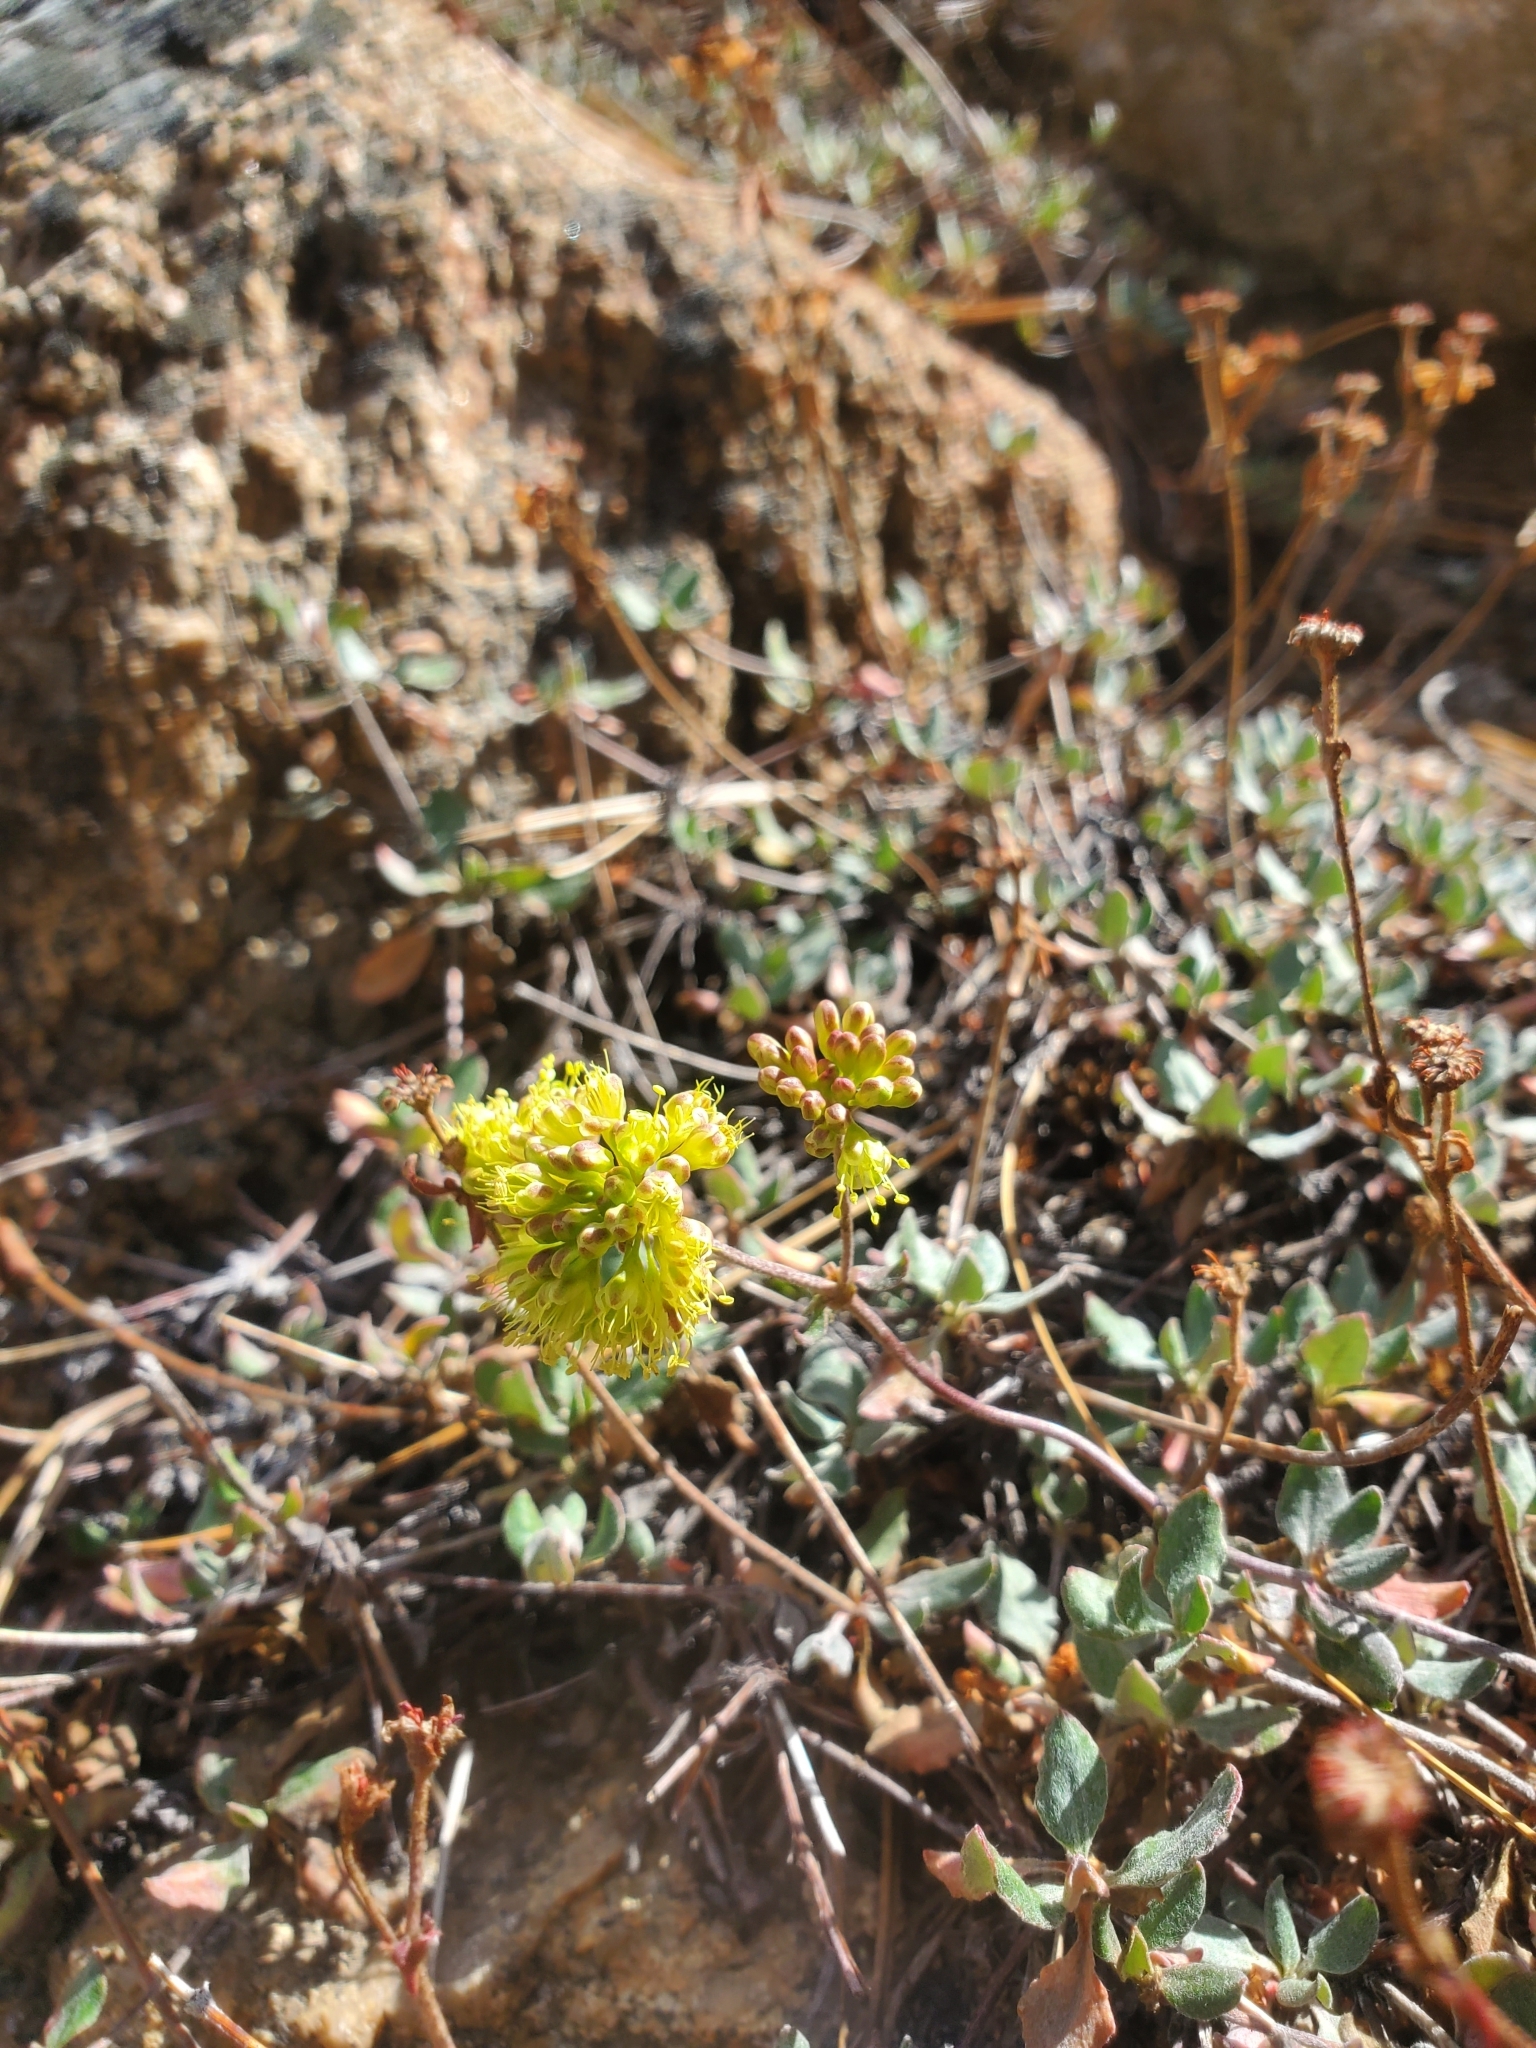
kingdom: Plantae
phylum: Tracheophyta
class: Magnoliopsida
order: Caryophyllales
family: Polygonaceae
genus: Eriogonum
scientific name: Eriogonum umbellatum
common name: Sulfur-buckwheat
